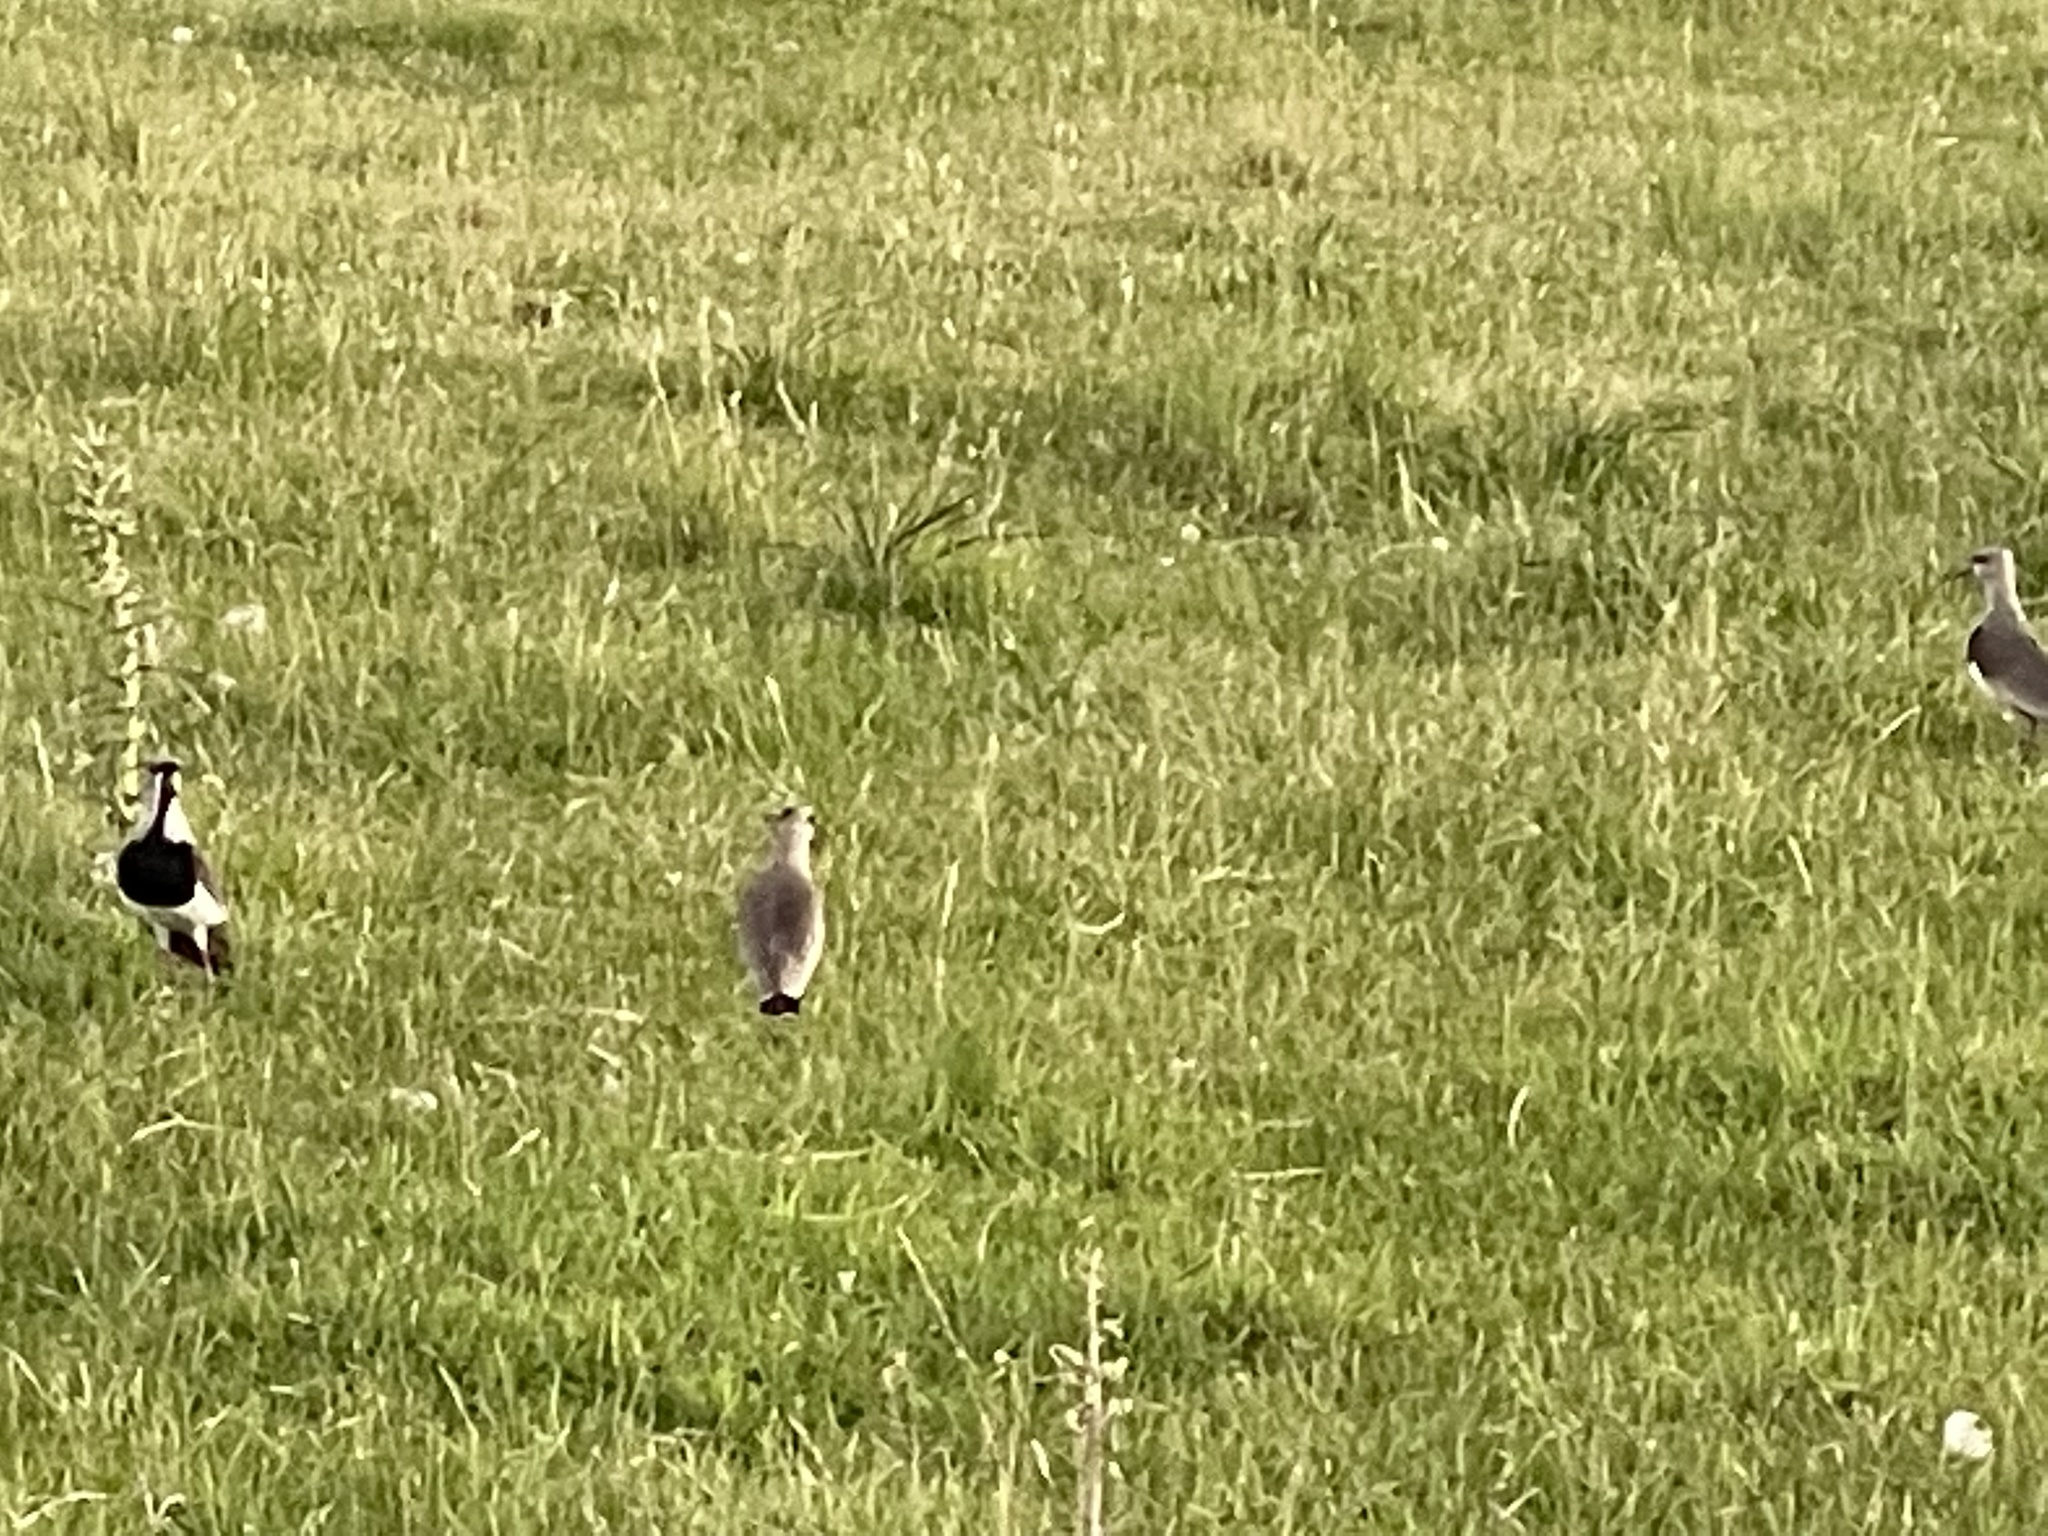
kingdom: Animalia
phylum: Chordata
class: Aves
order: Charadriiformes
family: Charadriidae
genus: Vanellus
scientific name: Vanellus chilensis
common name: Southern lapwing
